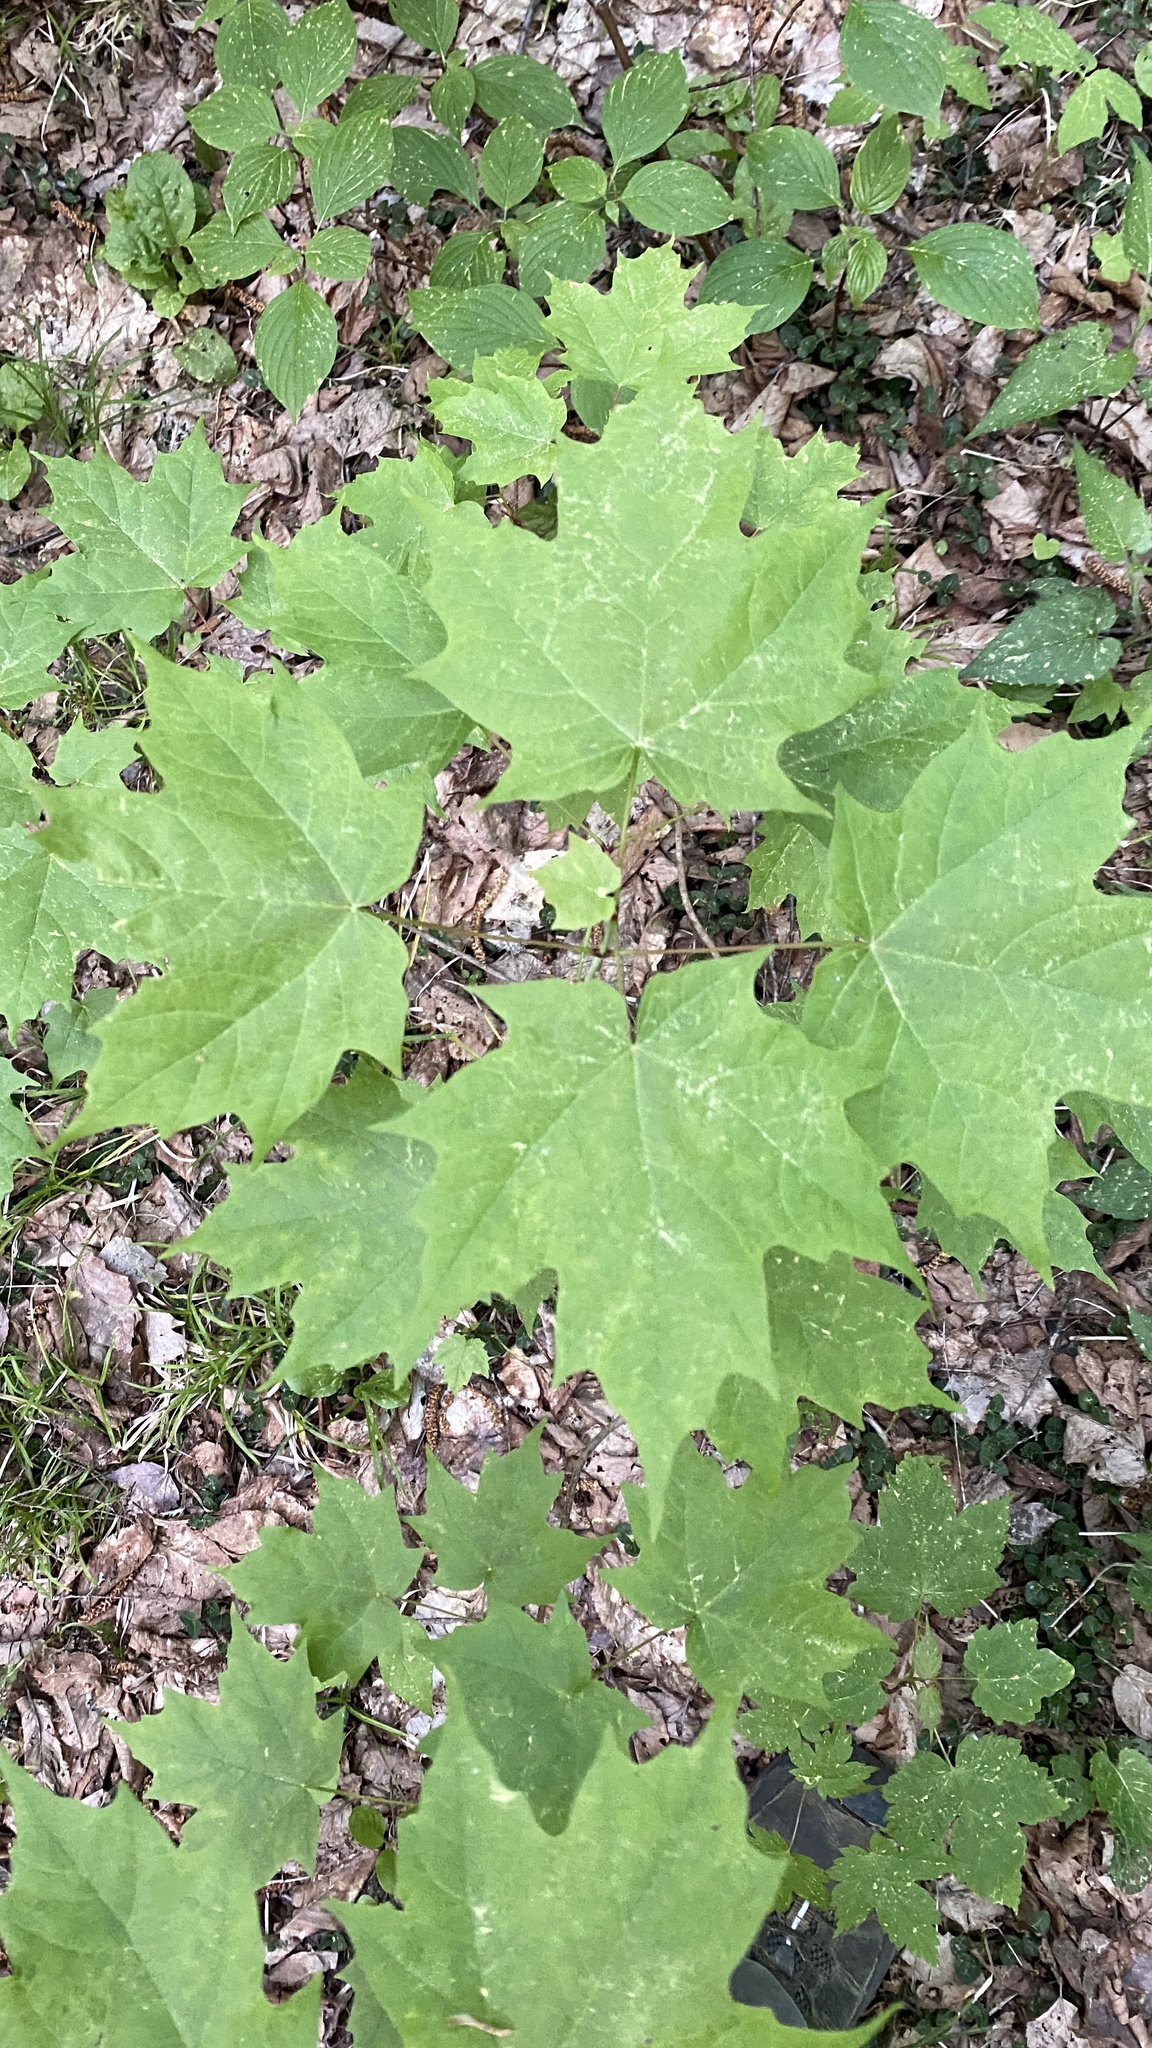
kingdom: Plantae
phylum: Tracheophyta
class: Magnoliopsida
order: Sapindales
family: Sapindaceae
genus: Acer
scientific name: Acer saccharum
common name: Sugar maple
